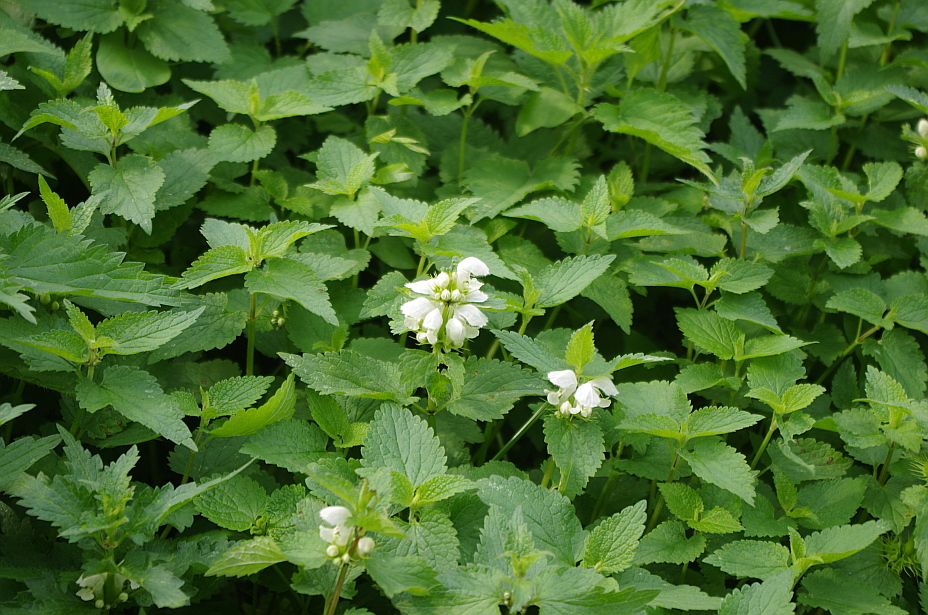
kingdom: Plantae
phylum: Tracheophyta
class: Magnoliopsida
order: Lamiales
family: Lamiaceae
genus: Lamium
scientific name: Lamium album
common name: White dead-nettle
